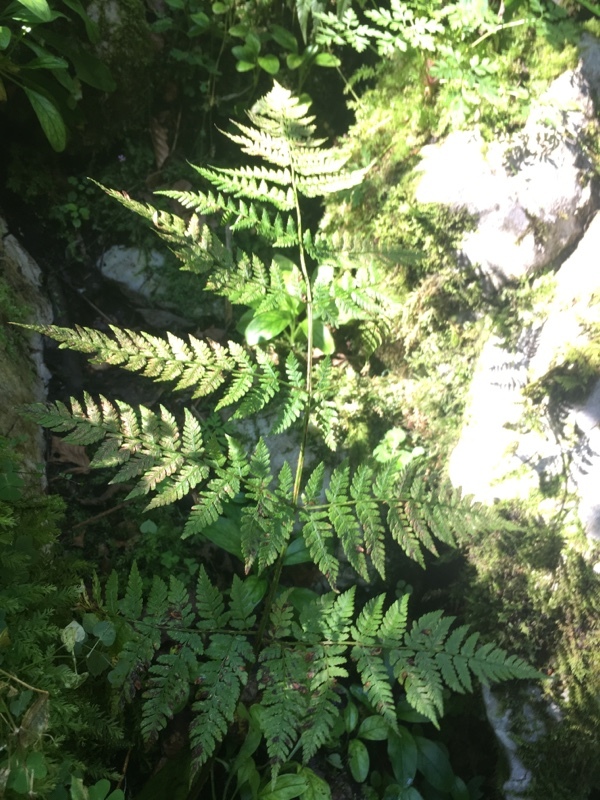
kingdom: Plantae
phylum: Tracheophyta
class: Polypodiopsida
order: Polypodiales
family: Dryopteridaceae
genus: Dryopteris
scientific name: Dryopteris expansa
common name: Northern buckler fern
